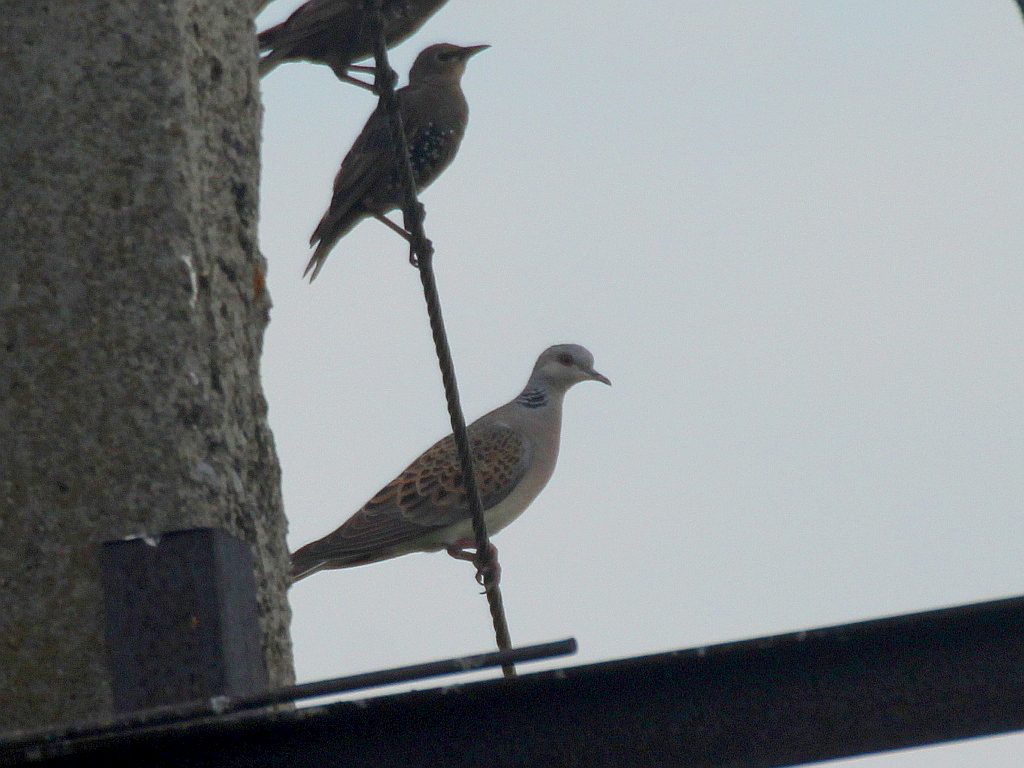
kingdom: Animalia
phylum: Chordata
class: Aves
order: Columbiformes
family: Columbidae
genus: Streptopelia
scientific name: Streptopelia turtur
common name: European turtle dove
